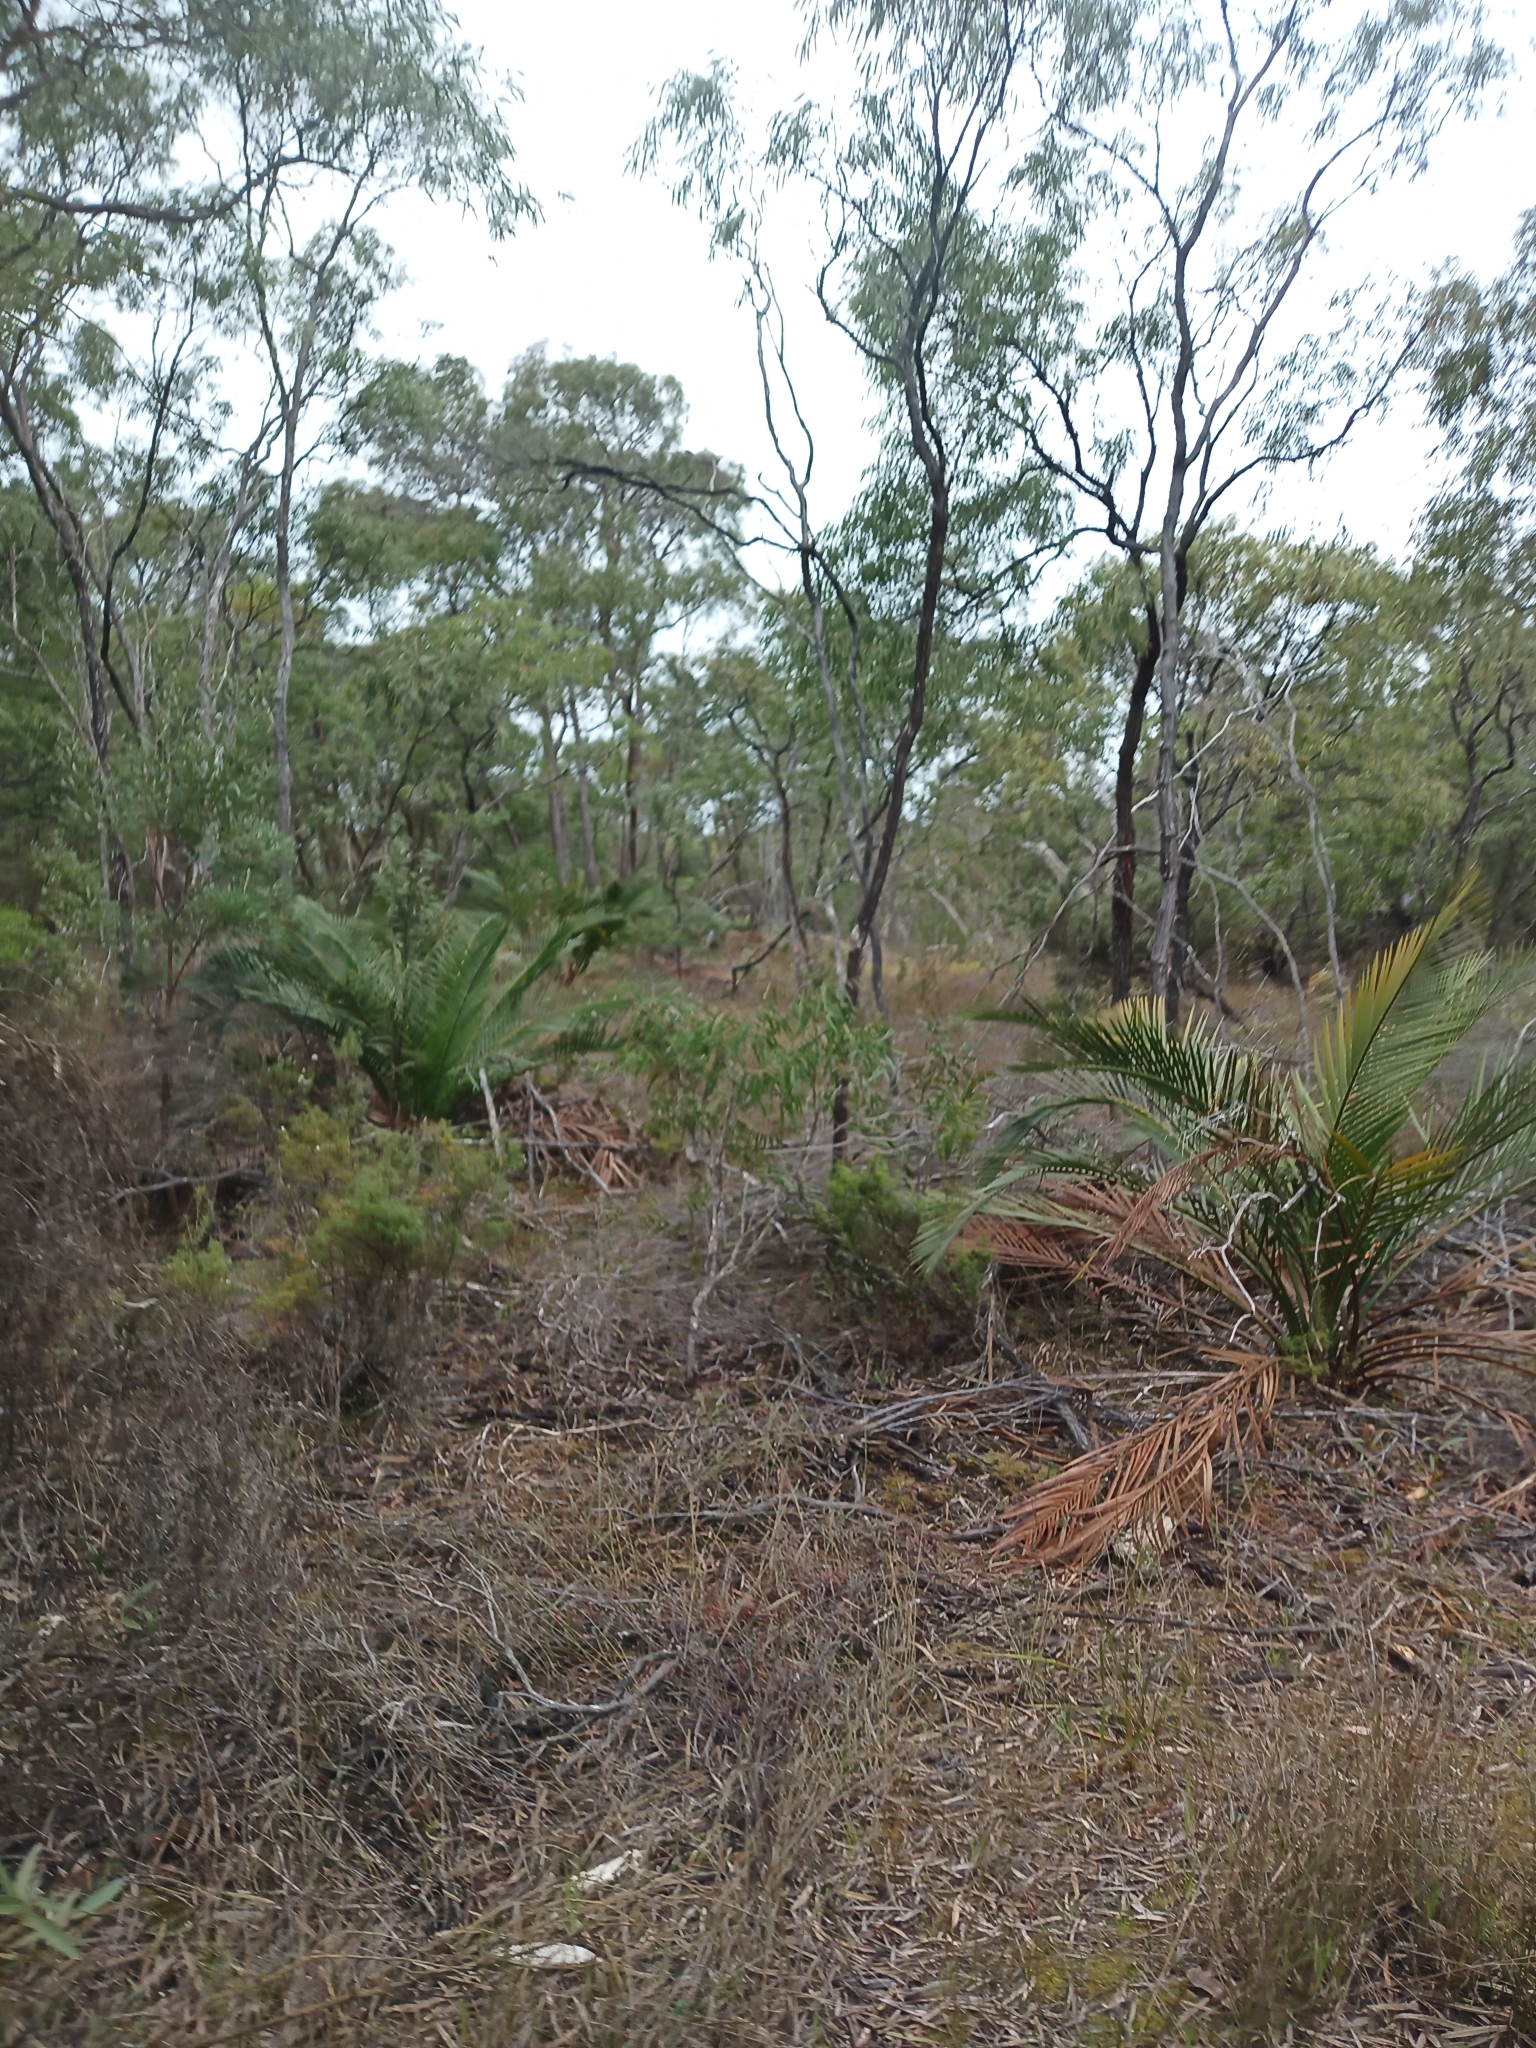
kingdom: Plantae
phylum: Tracheophyta
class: Cycadopsida
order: Cycadales
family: Zamiaceae
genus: Macrozamia
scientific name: Macrozamia riedlei
